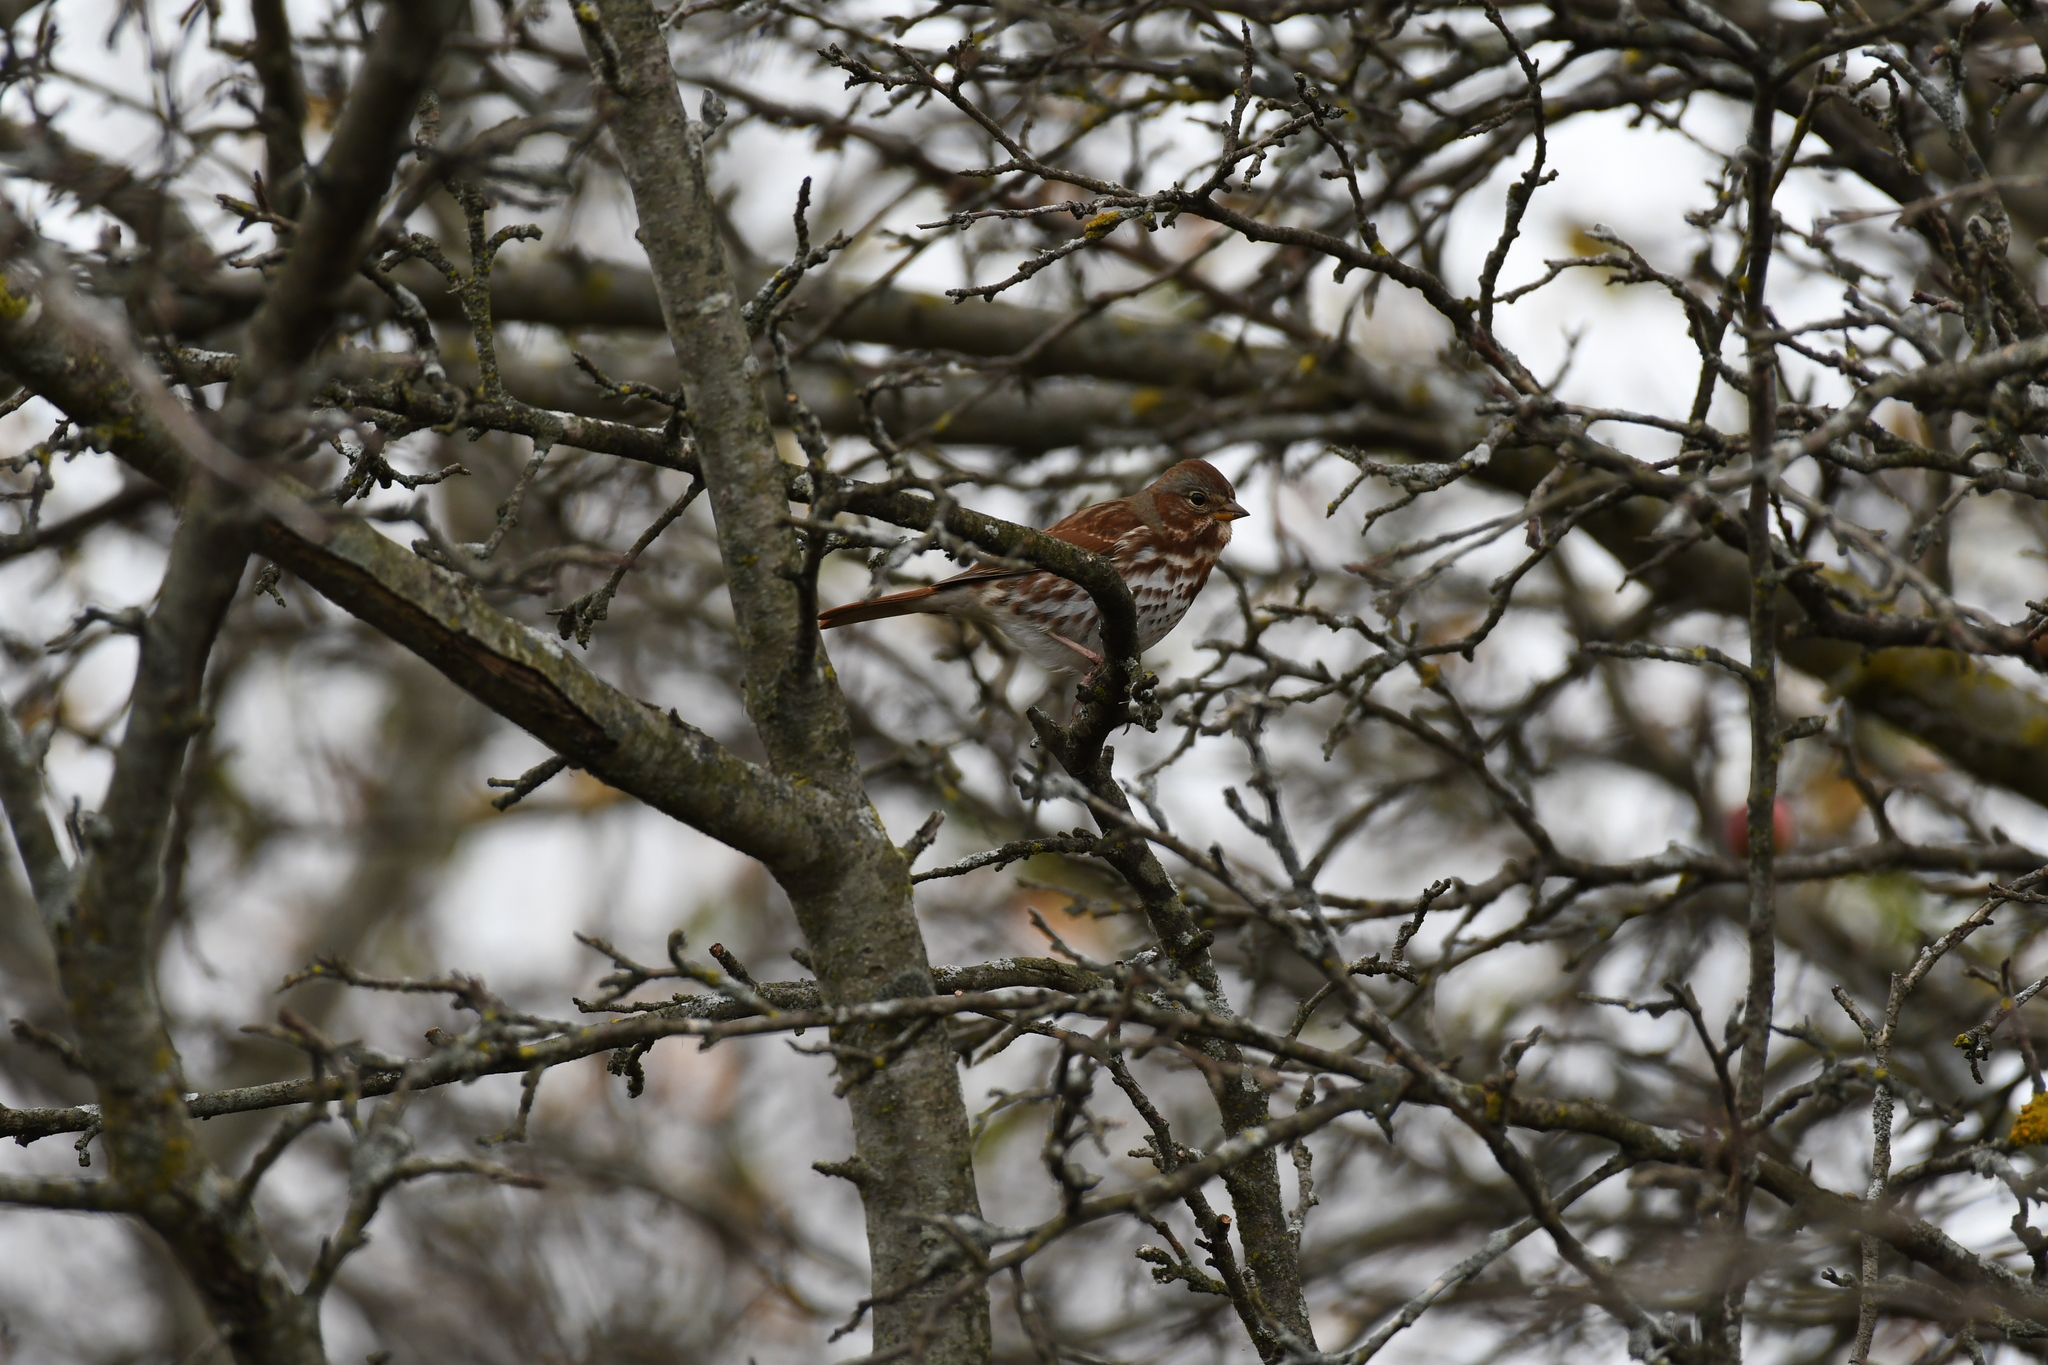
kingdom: Animalia
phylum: Chordata
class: Aves
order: Passeriformes
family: Passerellidae
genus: Passerella
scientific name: Passerella iliaca
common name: Fox sparrow
